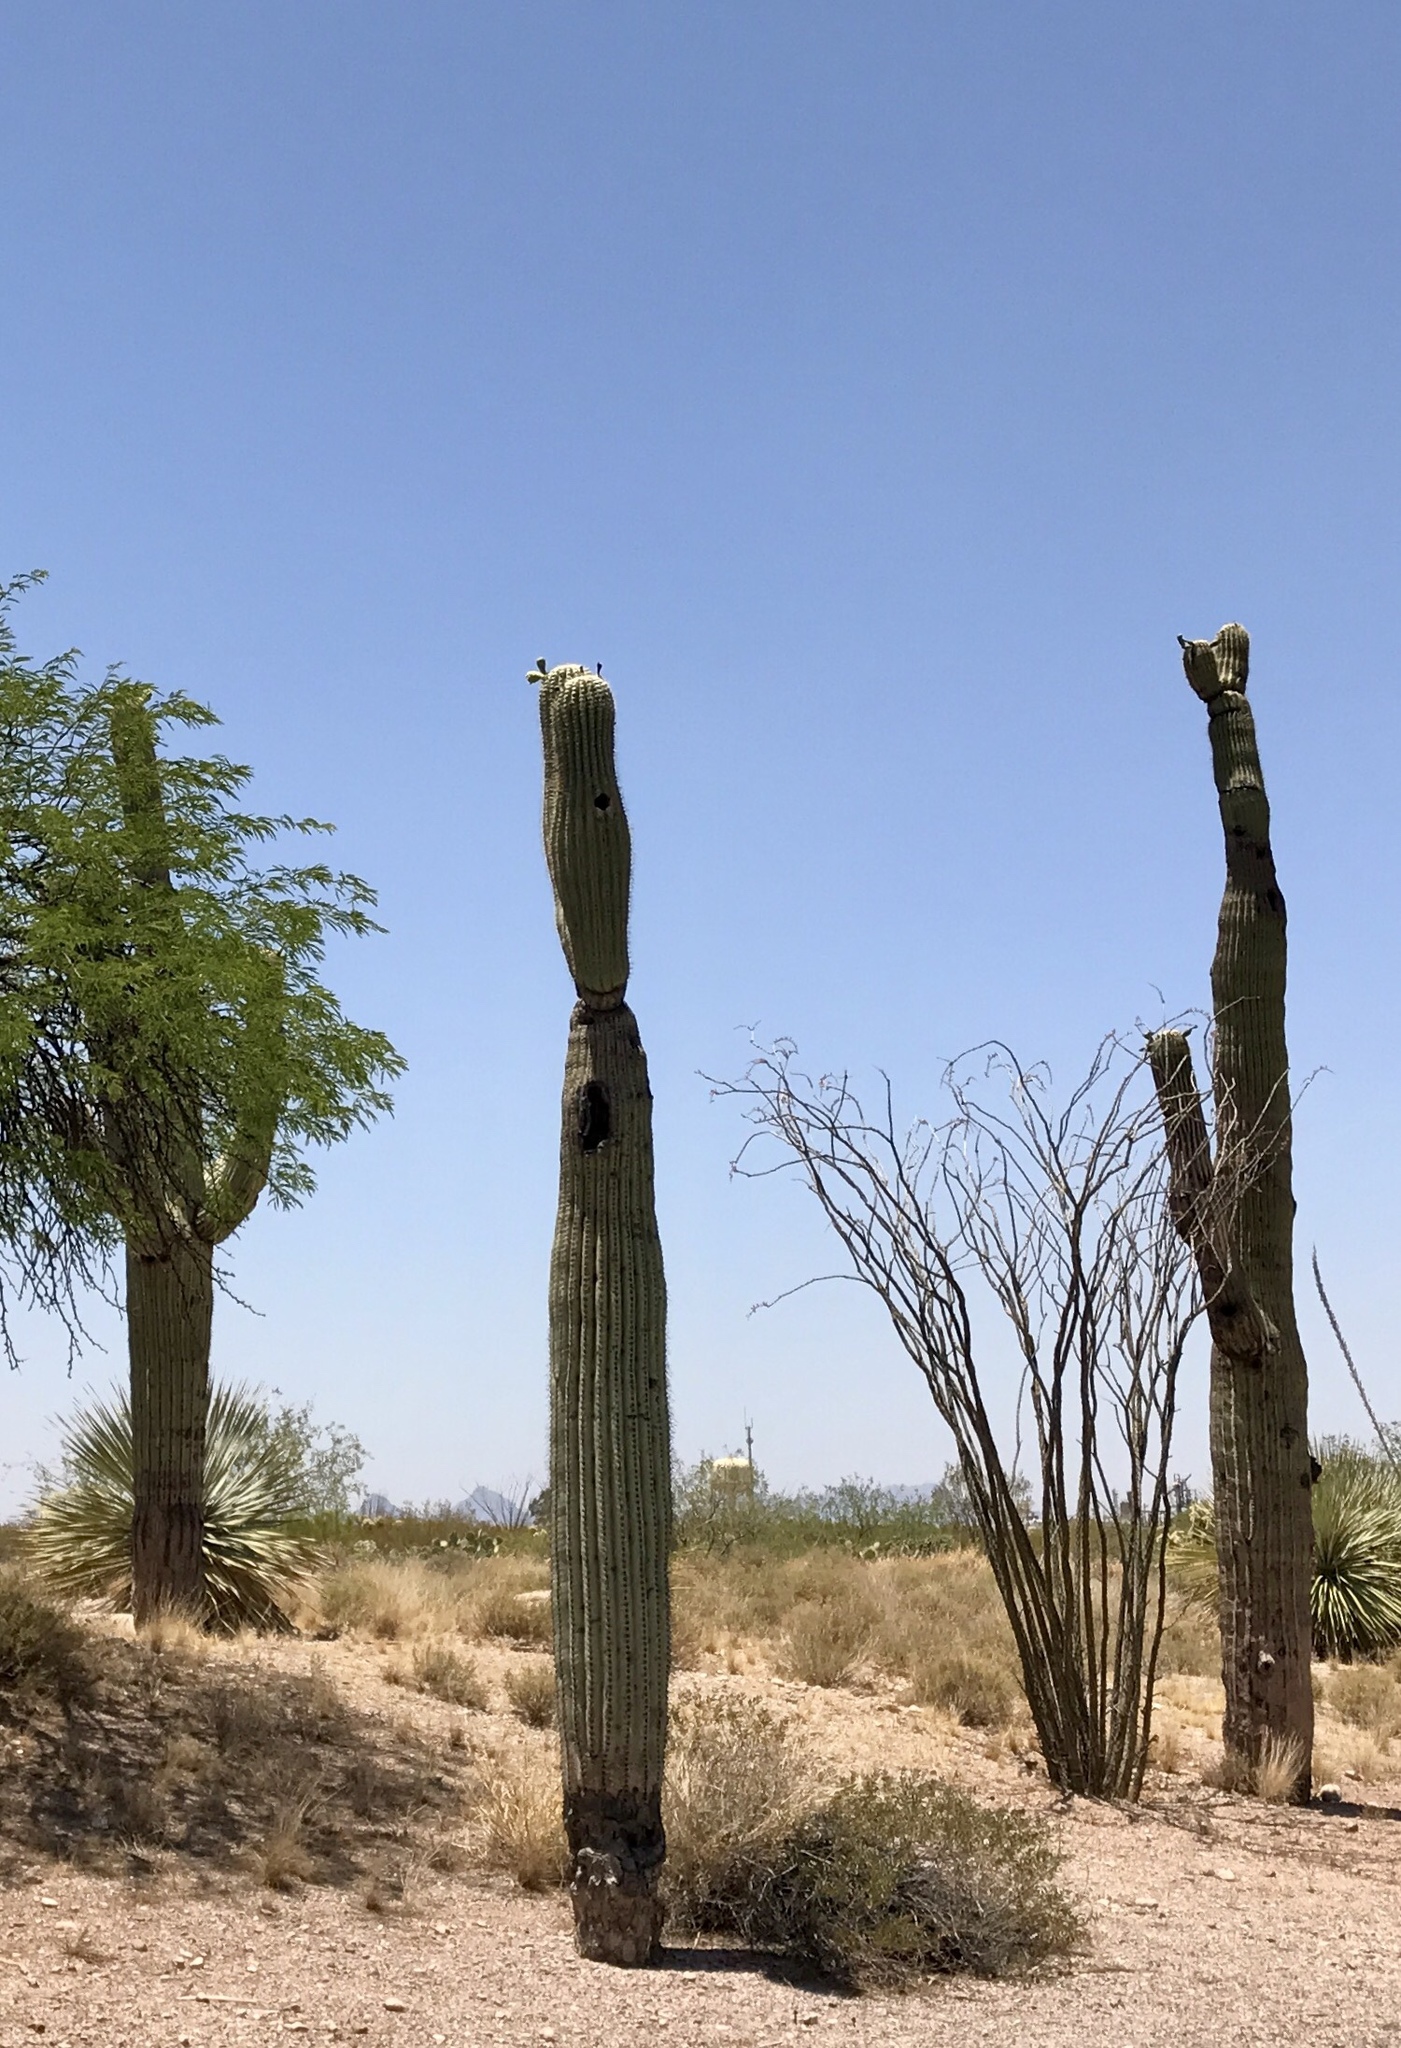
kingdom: Plantae
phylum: Tracheophyta
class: Magnoliopsida
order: Caryophyllales
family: Cactaceae
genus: Carnegiea
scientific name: Carnegiea gigantea
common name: Saguaro
